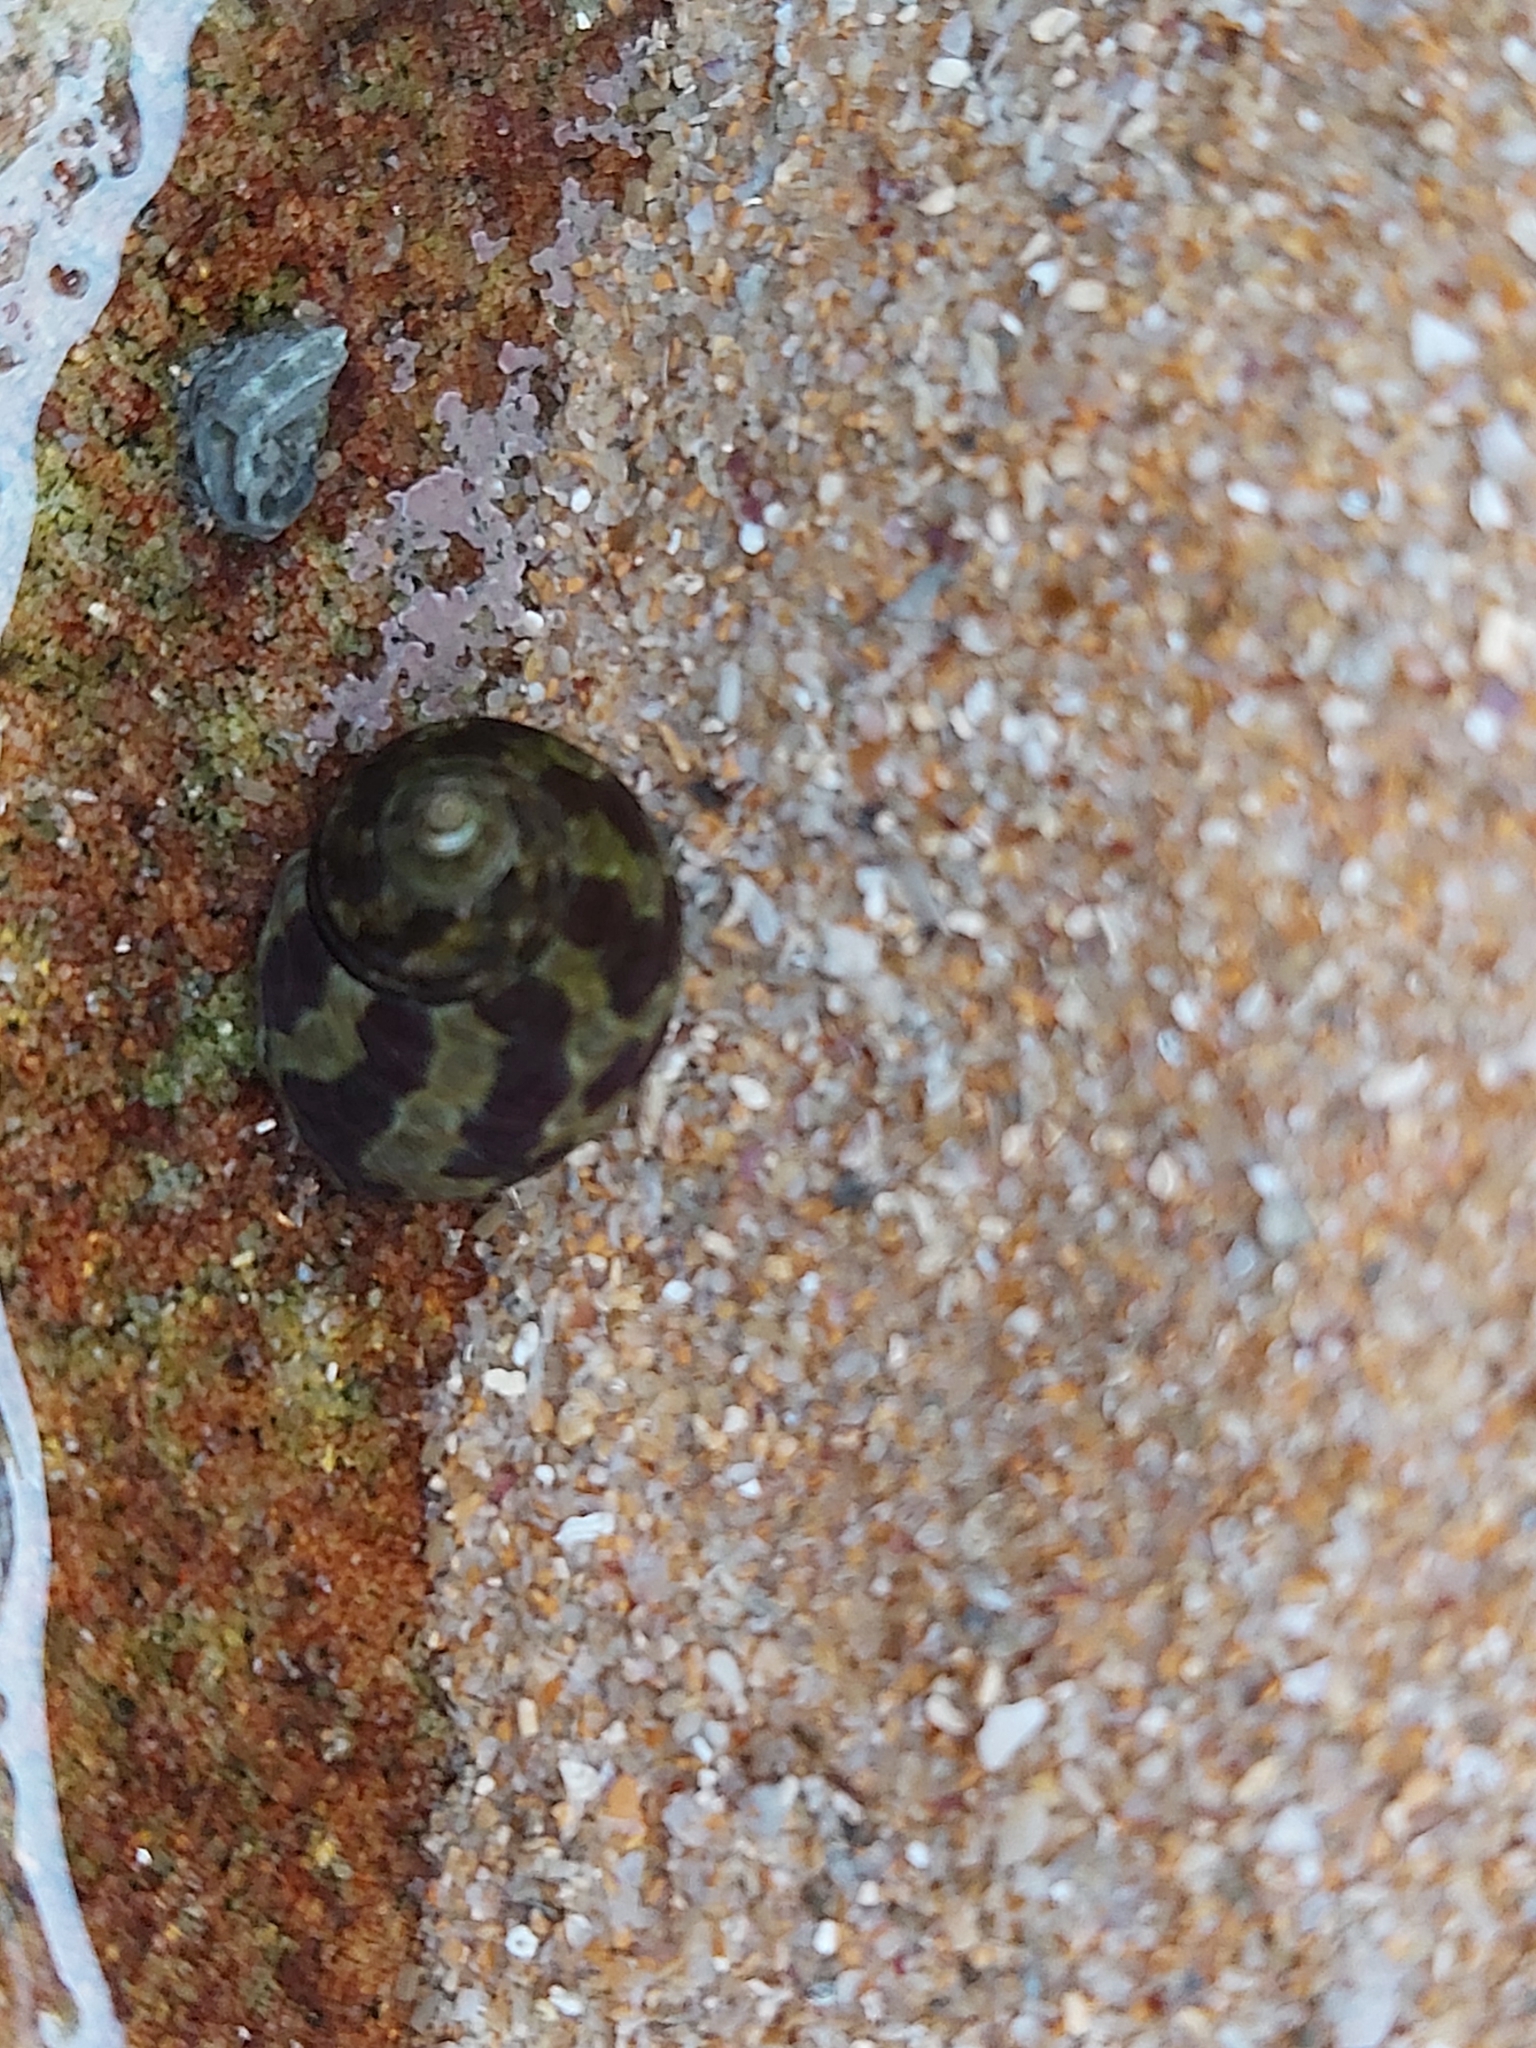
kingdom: Animalia
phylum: Mollusca
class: Gastropoda
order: Trochida
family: Trochidae
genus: Austrocochlea
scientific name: Austrocochlea porcata
